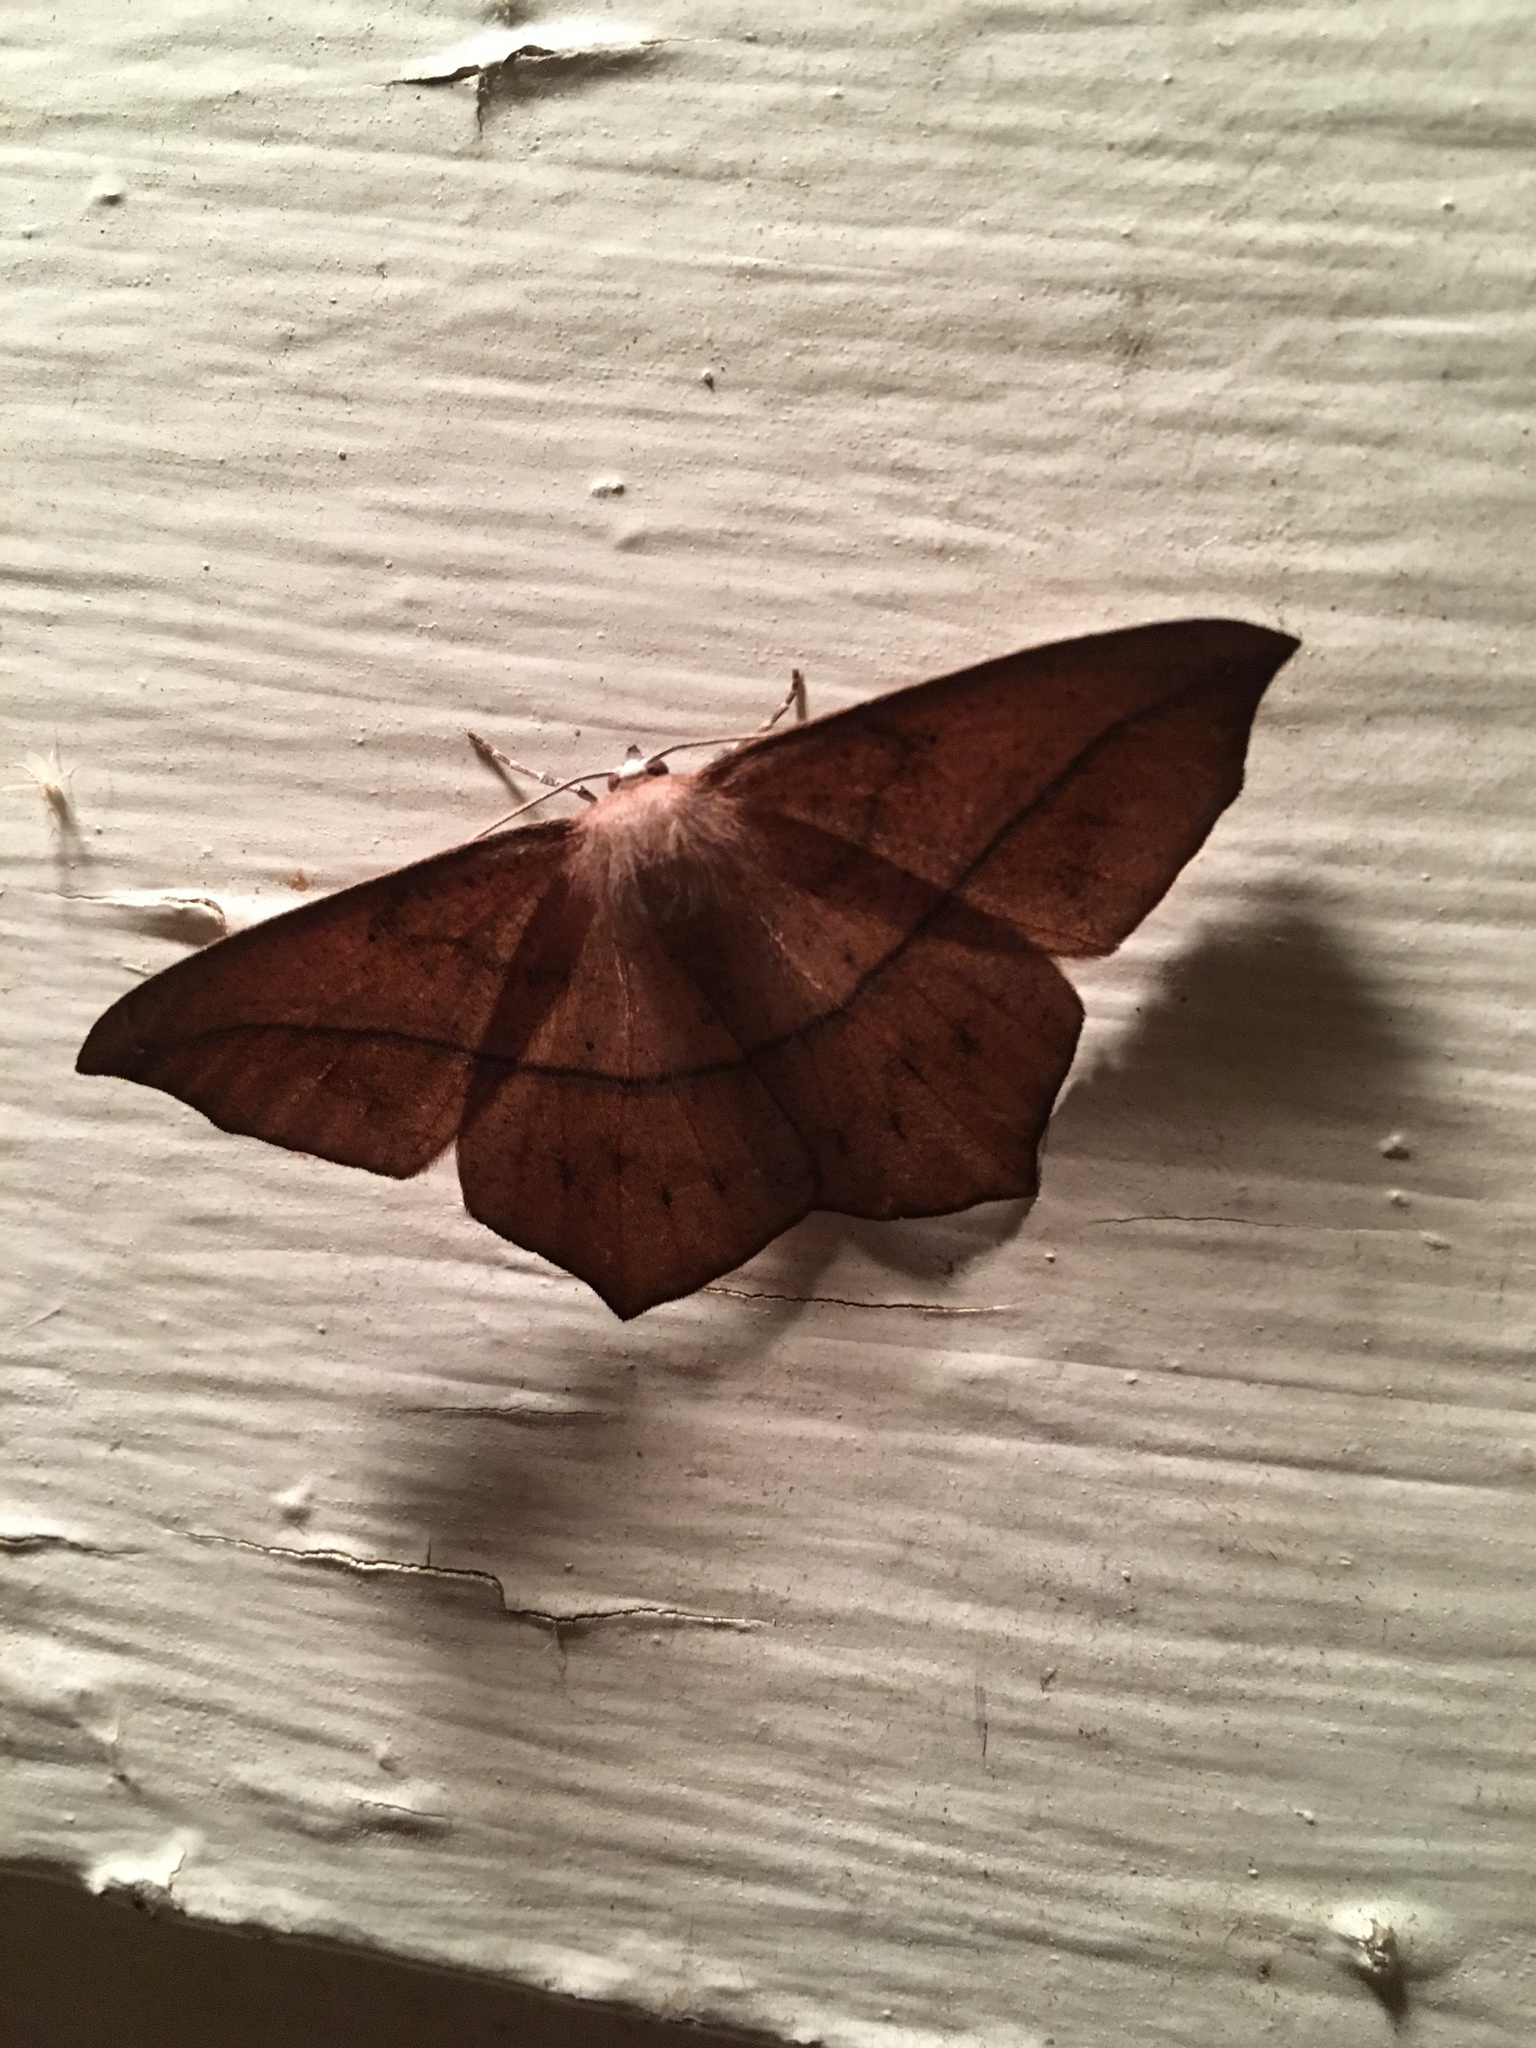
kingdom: Animalia
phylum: Arthropoda
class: Insecta
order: Lepidoptera
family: Geometridae
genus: Prochoerodes
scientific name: Prochoerodes lineola
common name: Large maple spanworm
